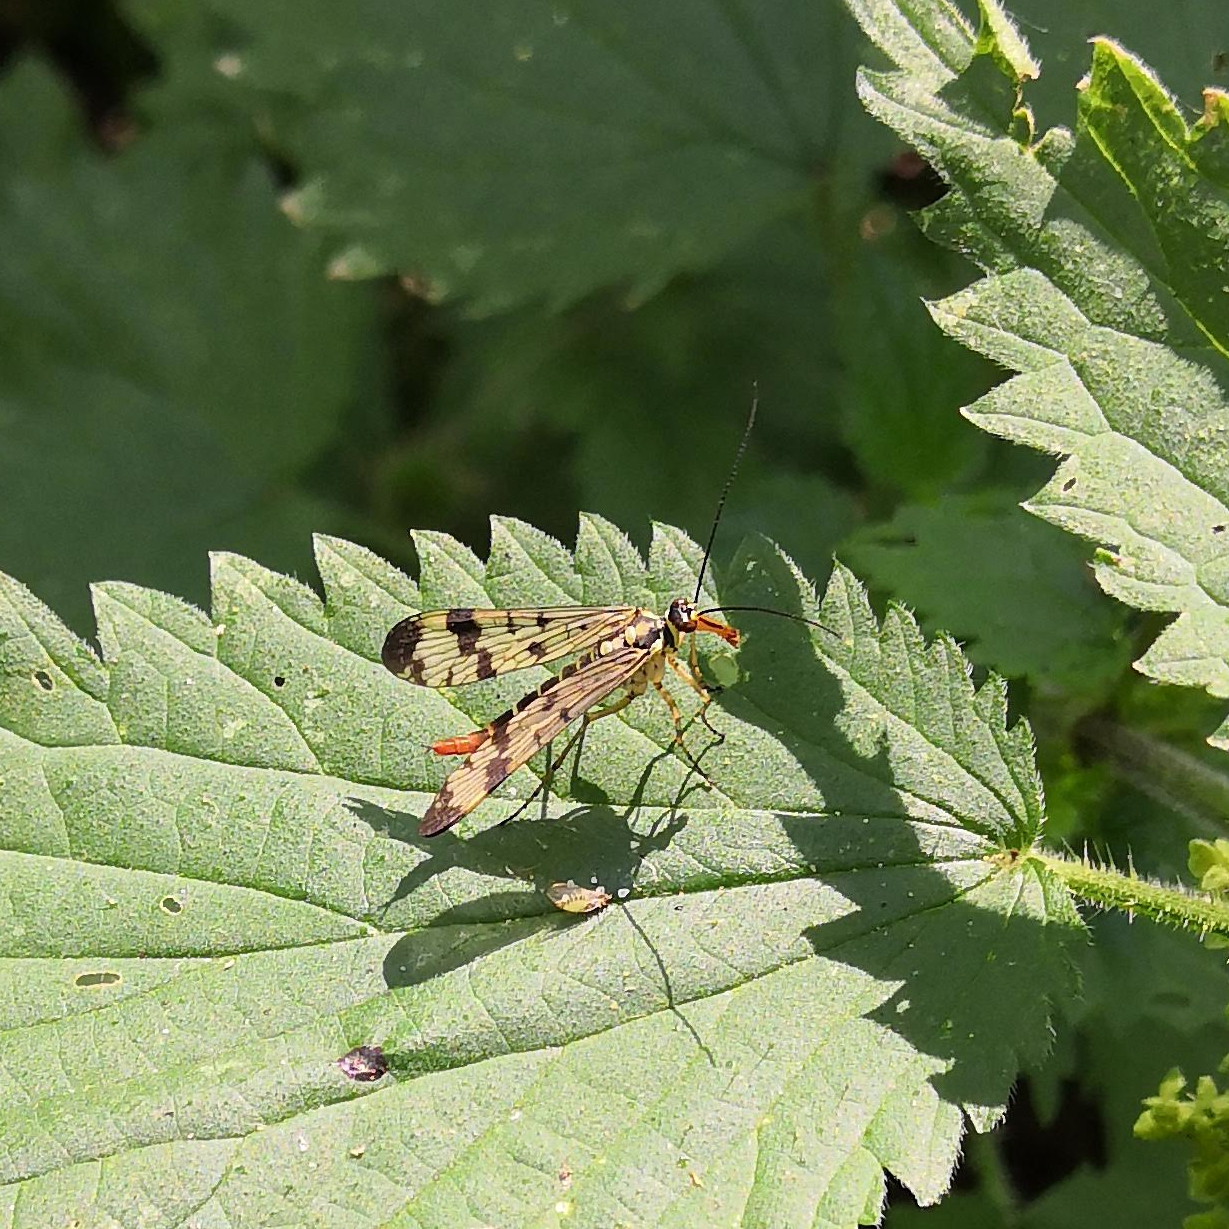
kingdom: Animalia
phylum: Arthropoda
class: Insecta
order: Mecoptera
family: Panorpidae
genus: Panorpa
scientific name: Panorpa communis
